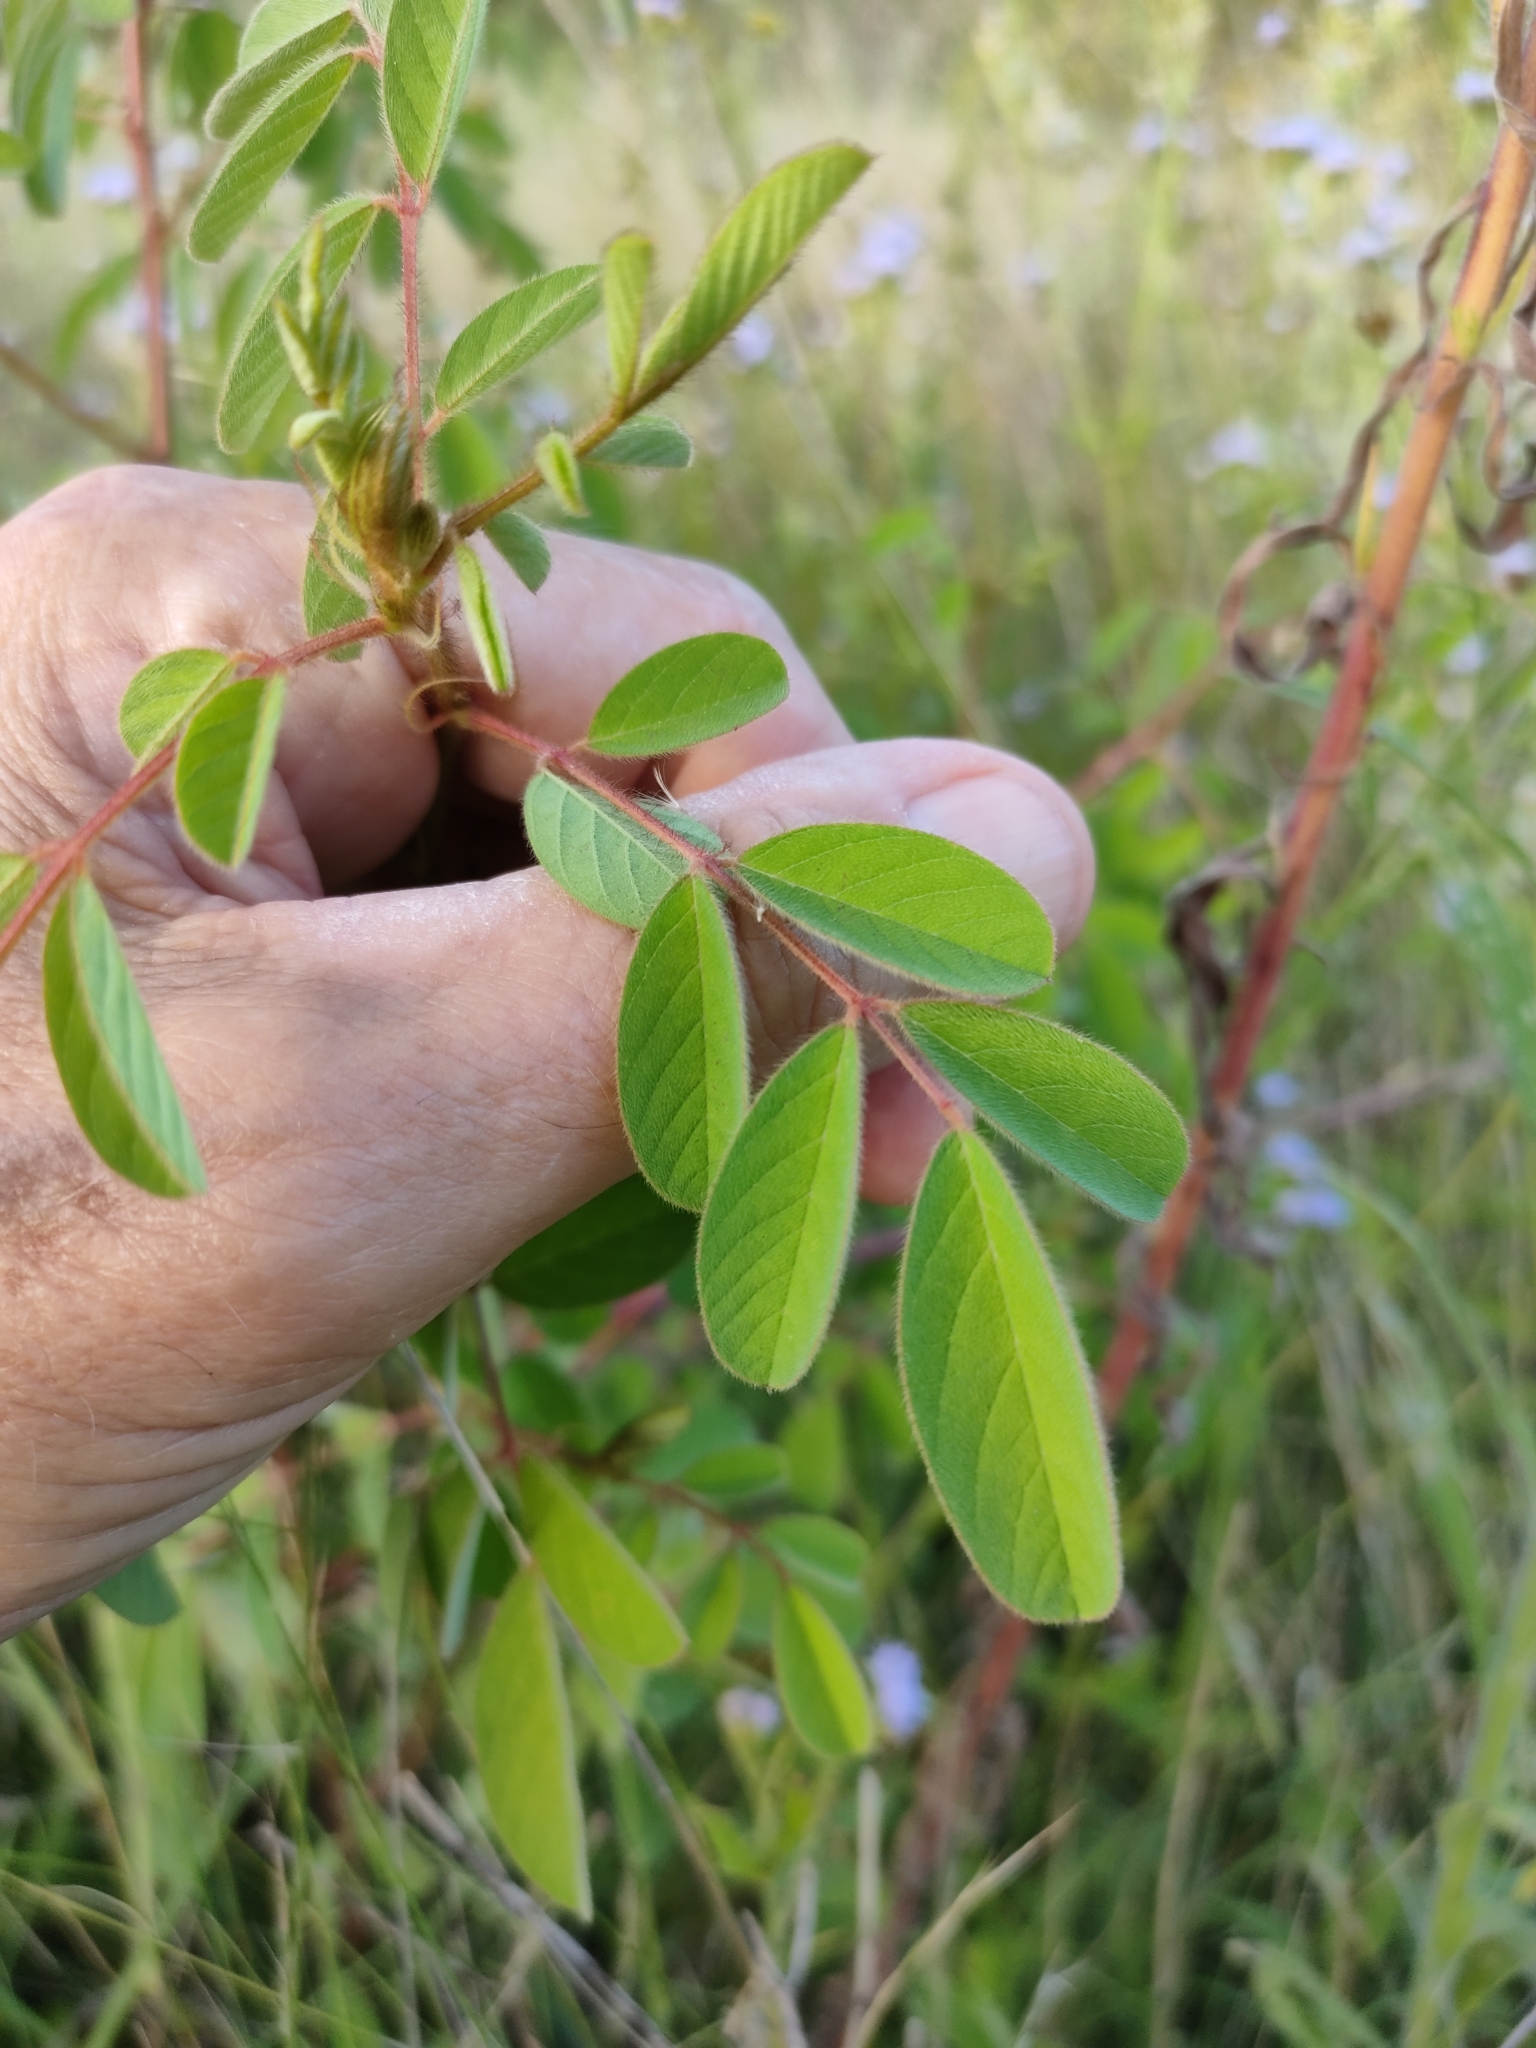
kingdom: Plantae
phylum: Tracheophyta
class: Magnoliopsida
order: Fabales
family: Fabaceae
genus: Indigofera
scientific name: Indigofera hirsuta
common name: Hairy indigo
